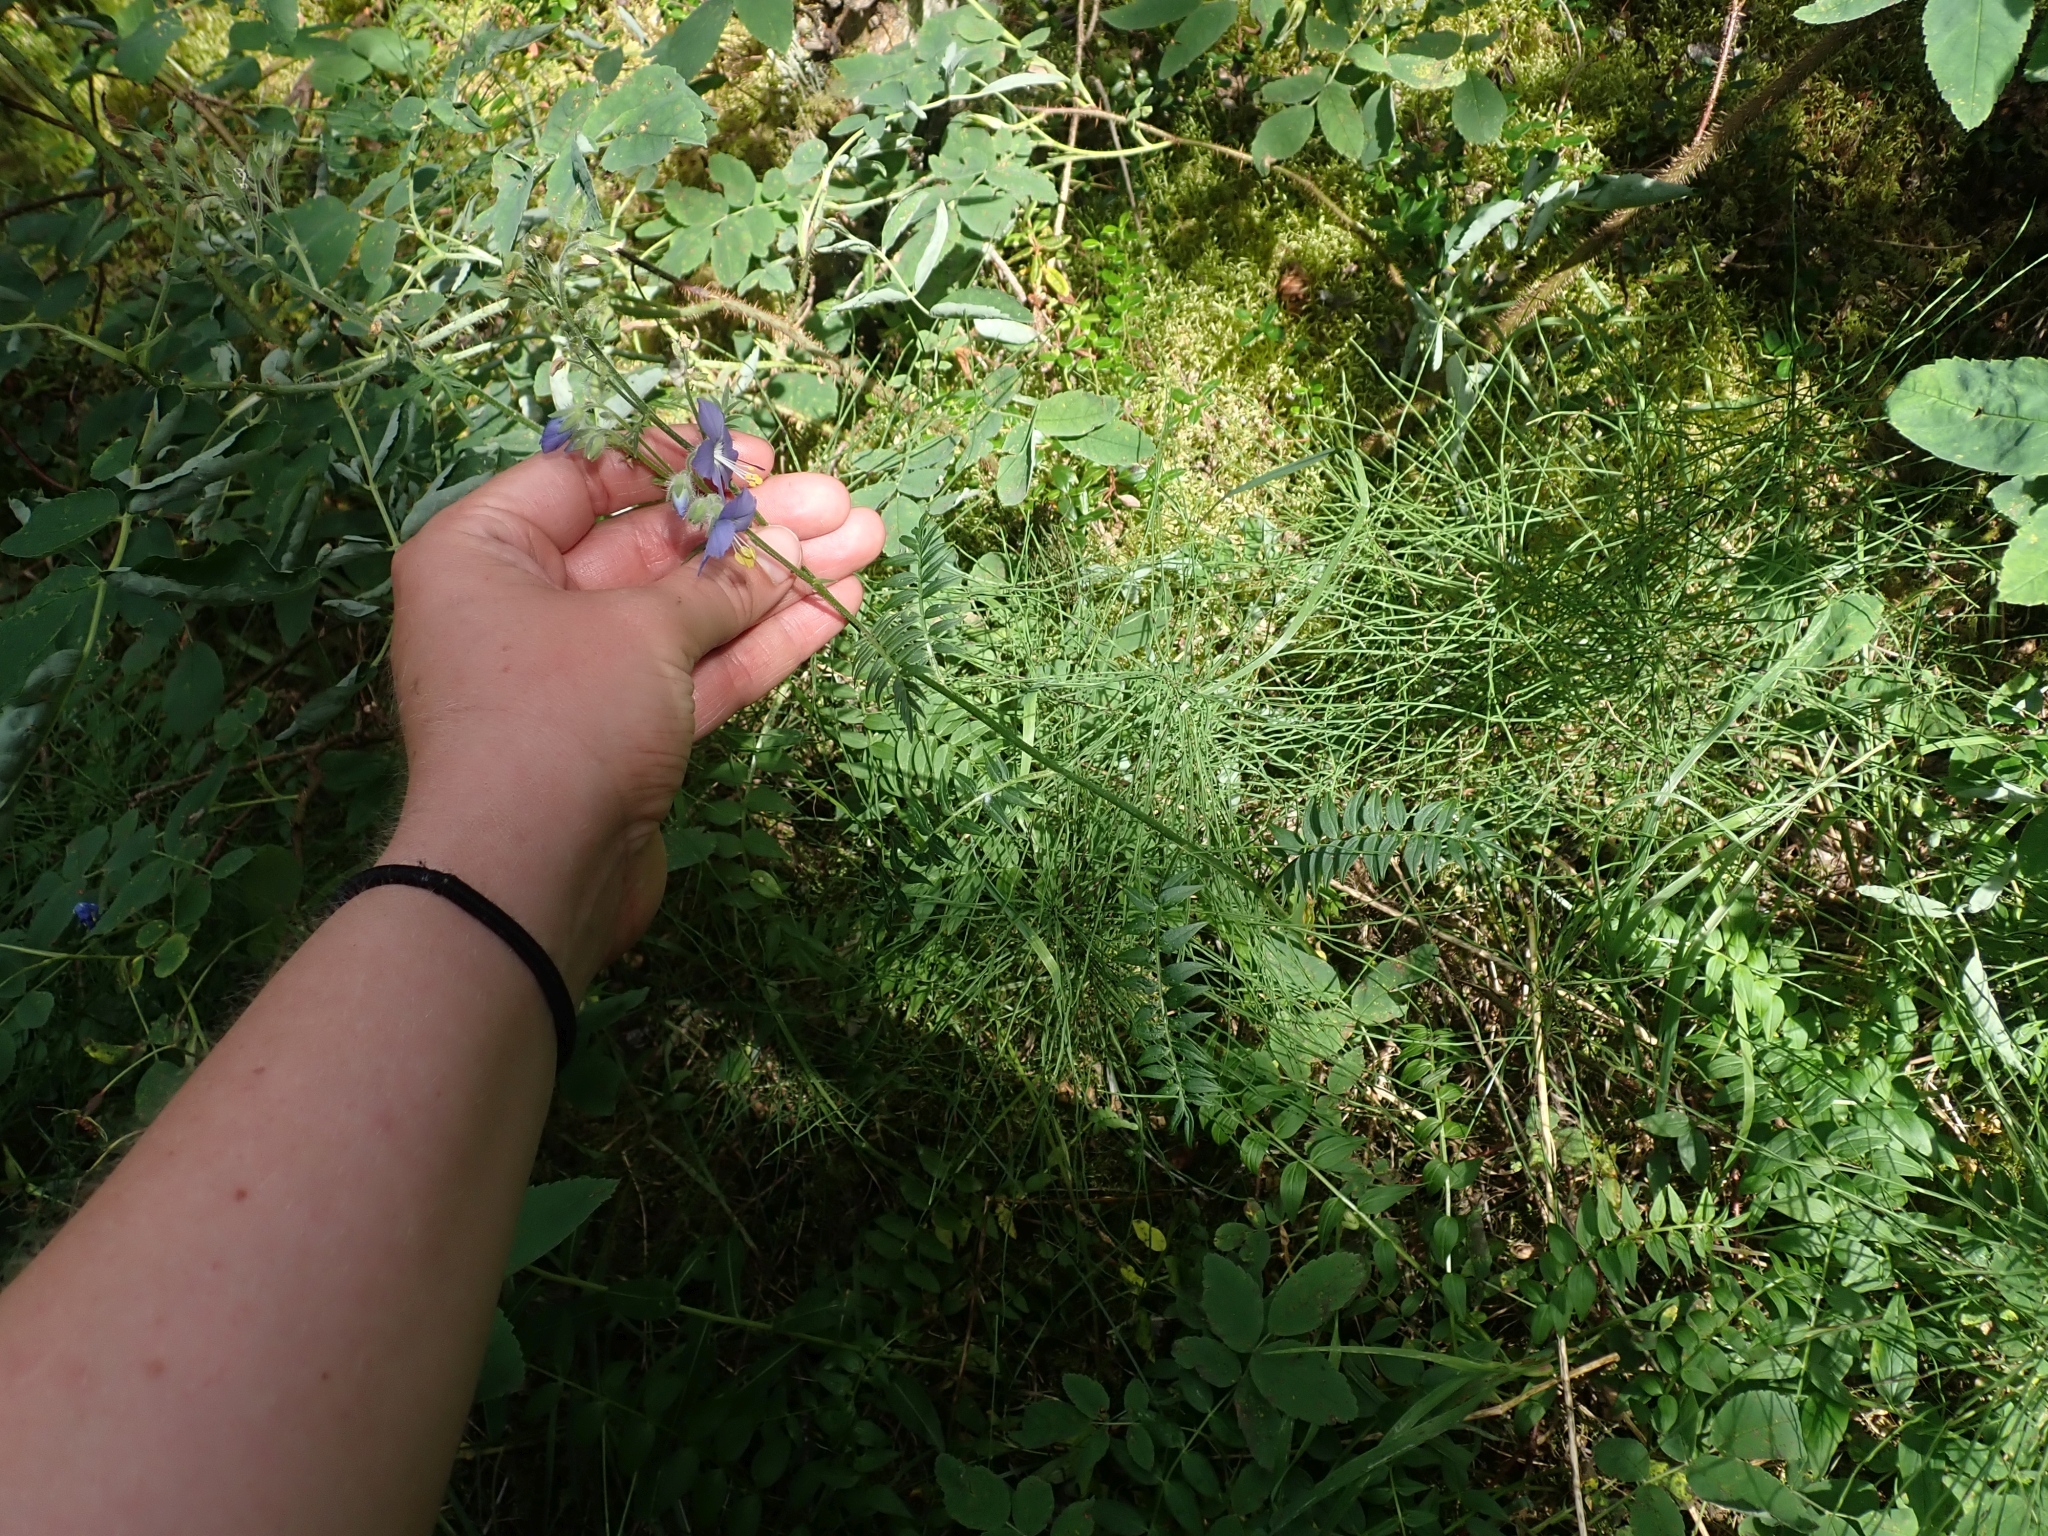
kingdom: Plantae
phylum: Tracheophyta
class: Magnoliopsida
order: Ericales
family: Polemoniaceae
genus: Polemonium
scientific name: Polemonium acutiflorum
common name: Tall jacob's-ladder
